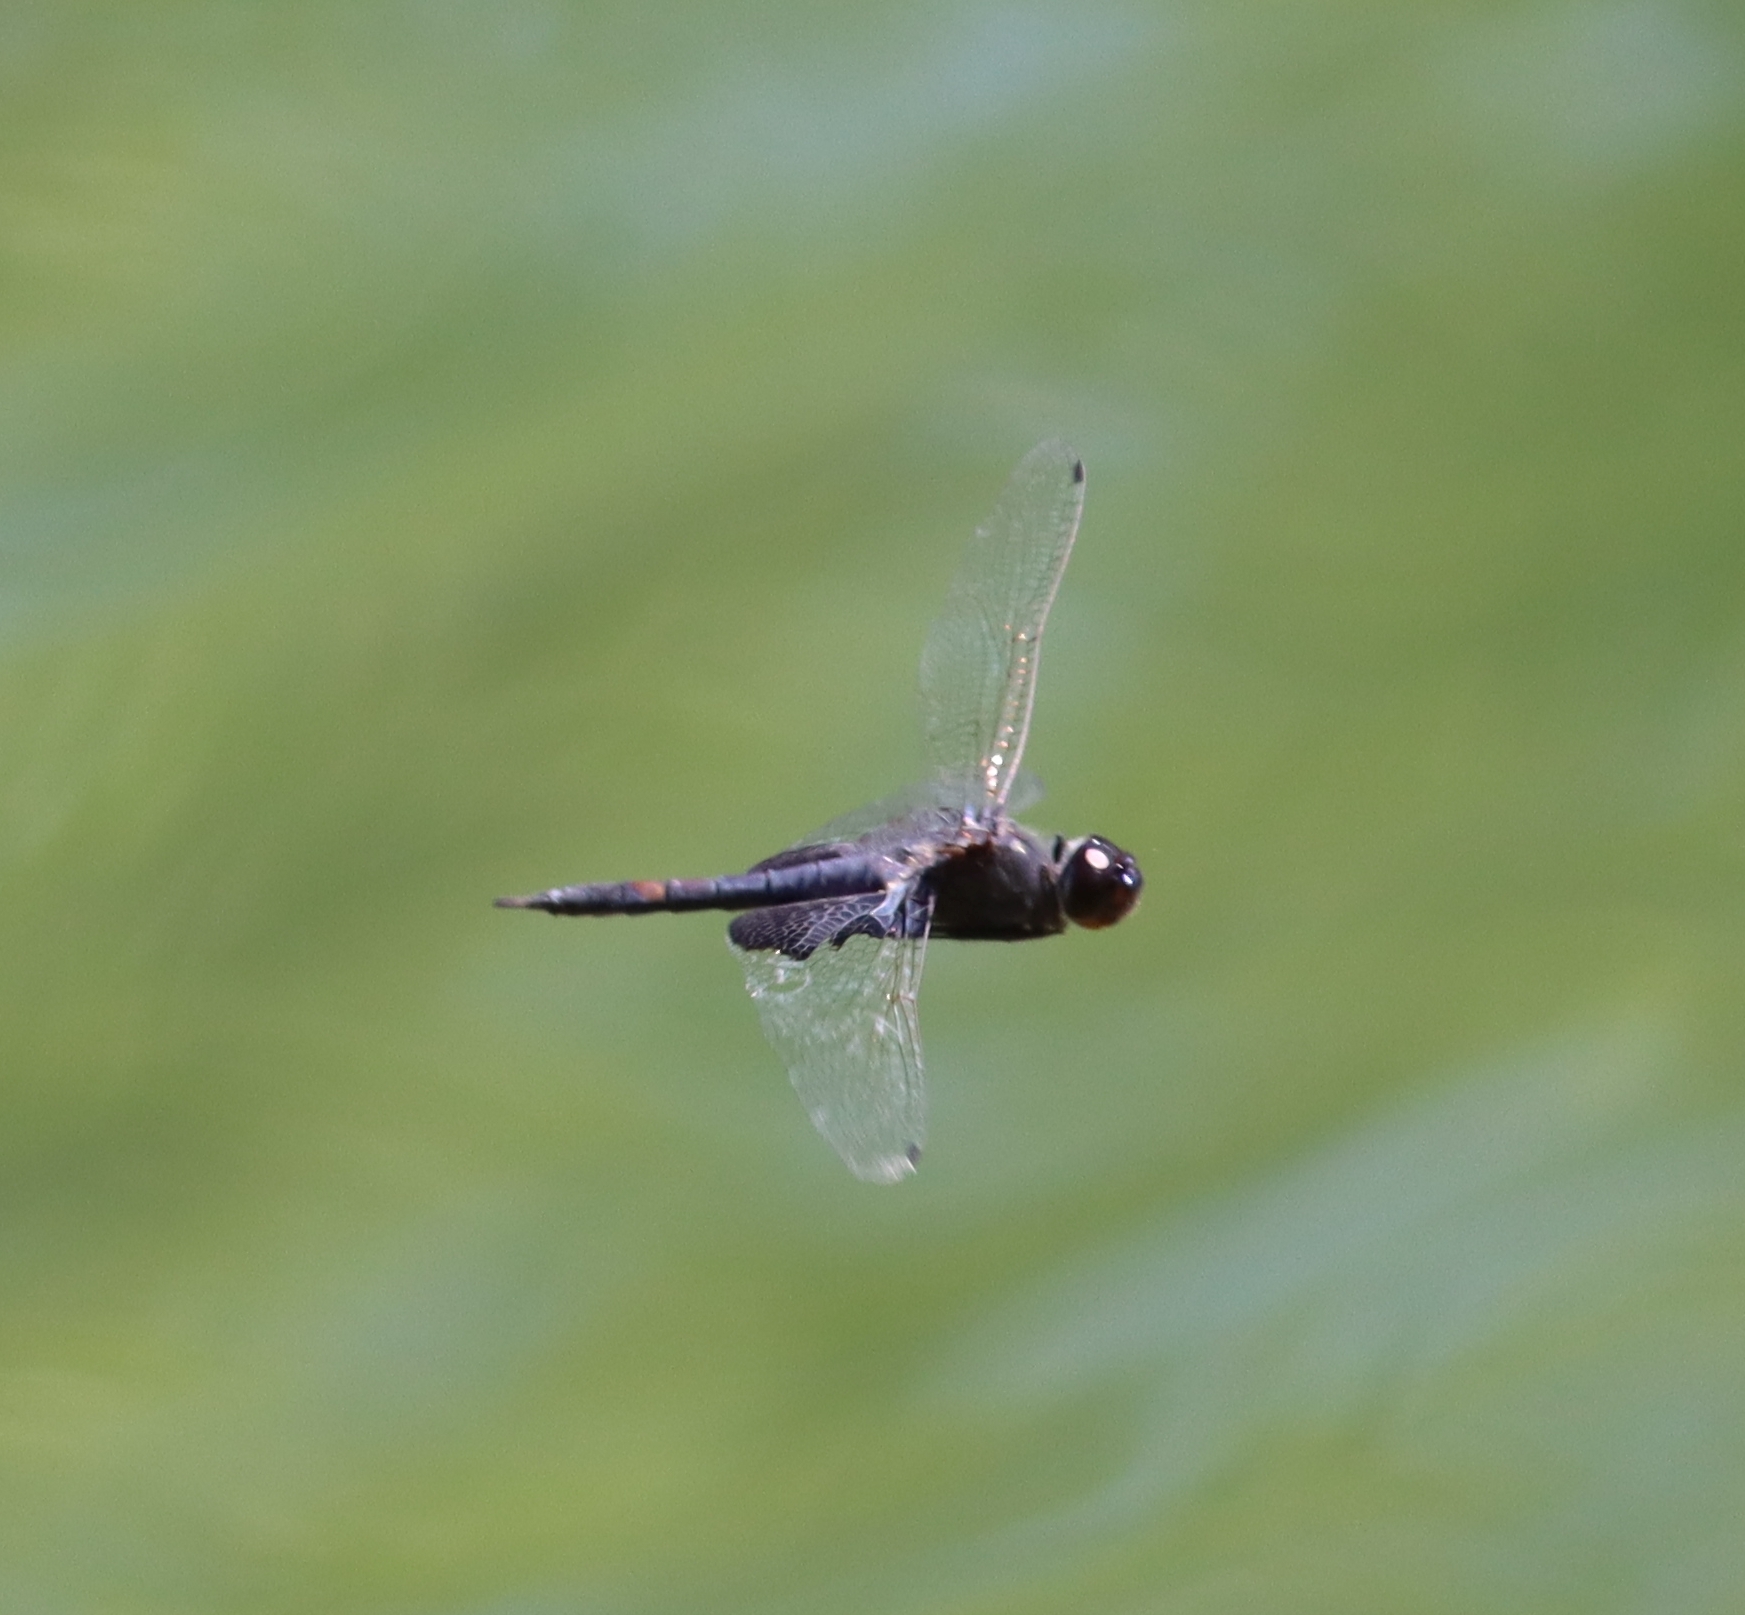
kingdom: Animalia
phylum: Arthropoda
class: Insecta
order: Odonata
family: Libellulidae
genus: Tramea
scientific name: Tramea lacerata
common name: Black saddlebags
